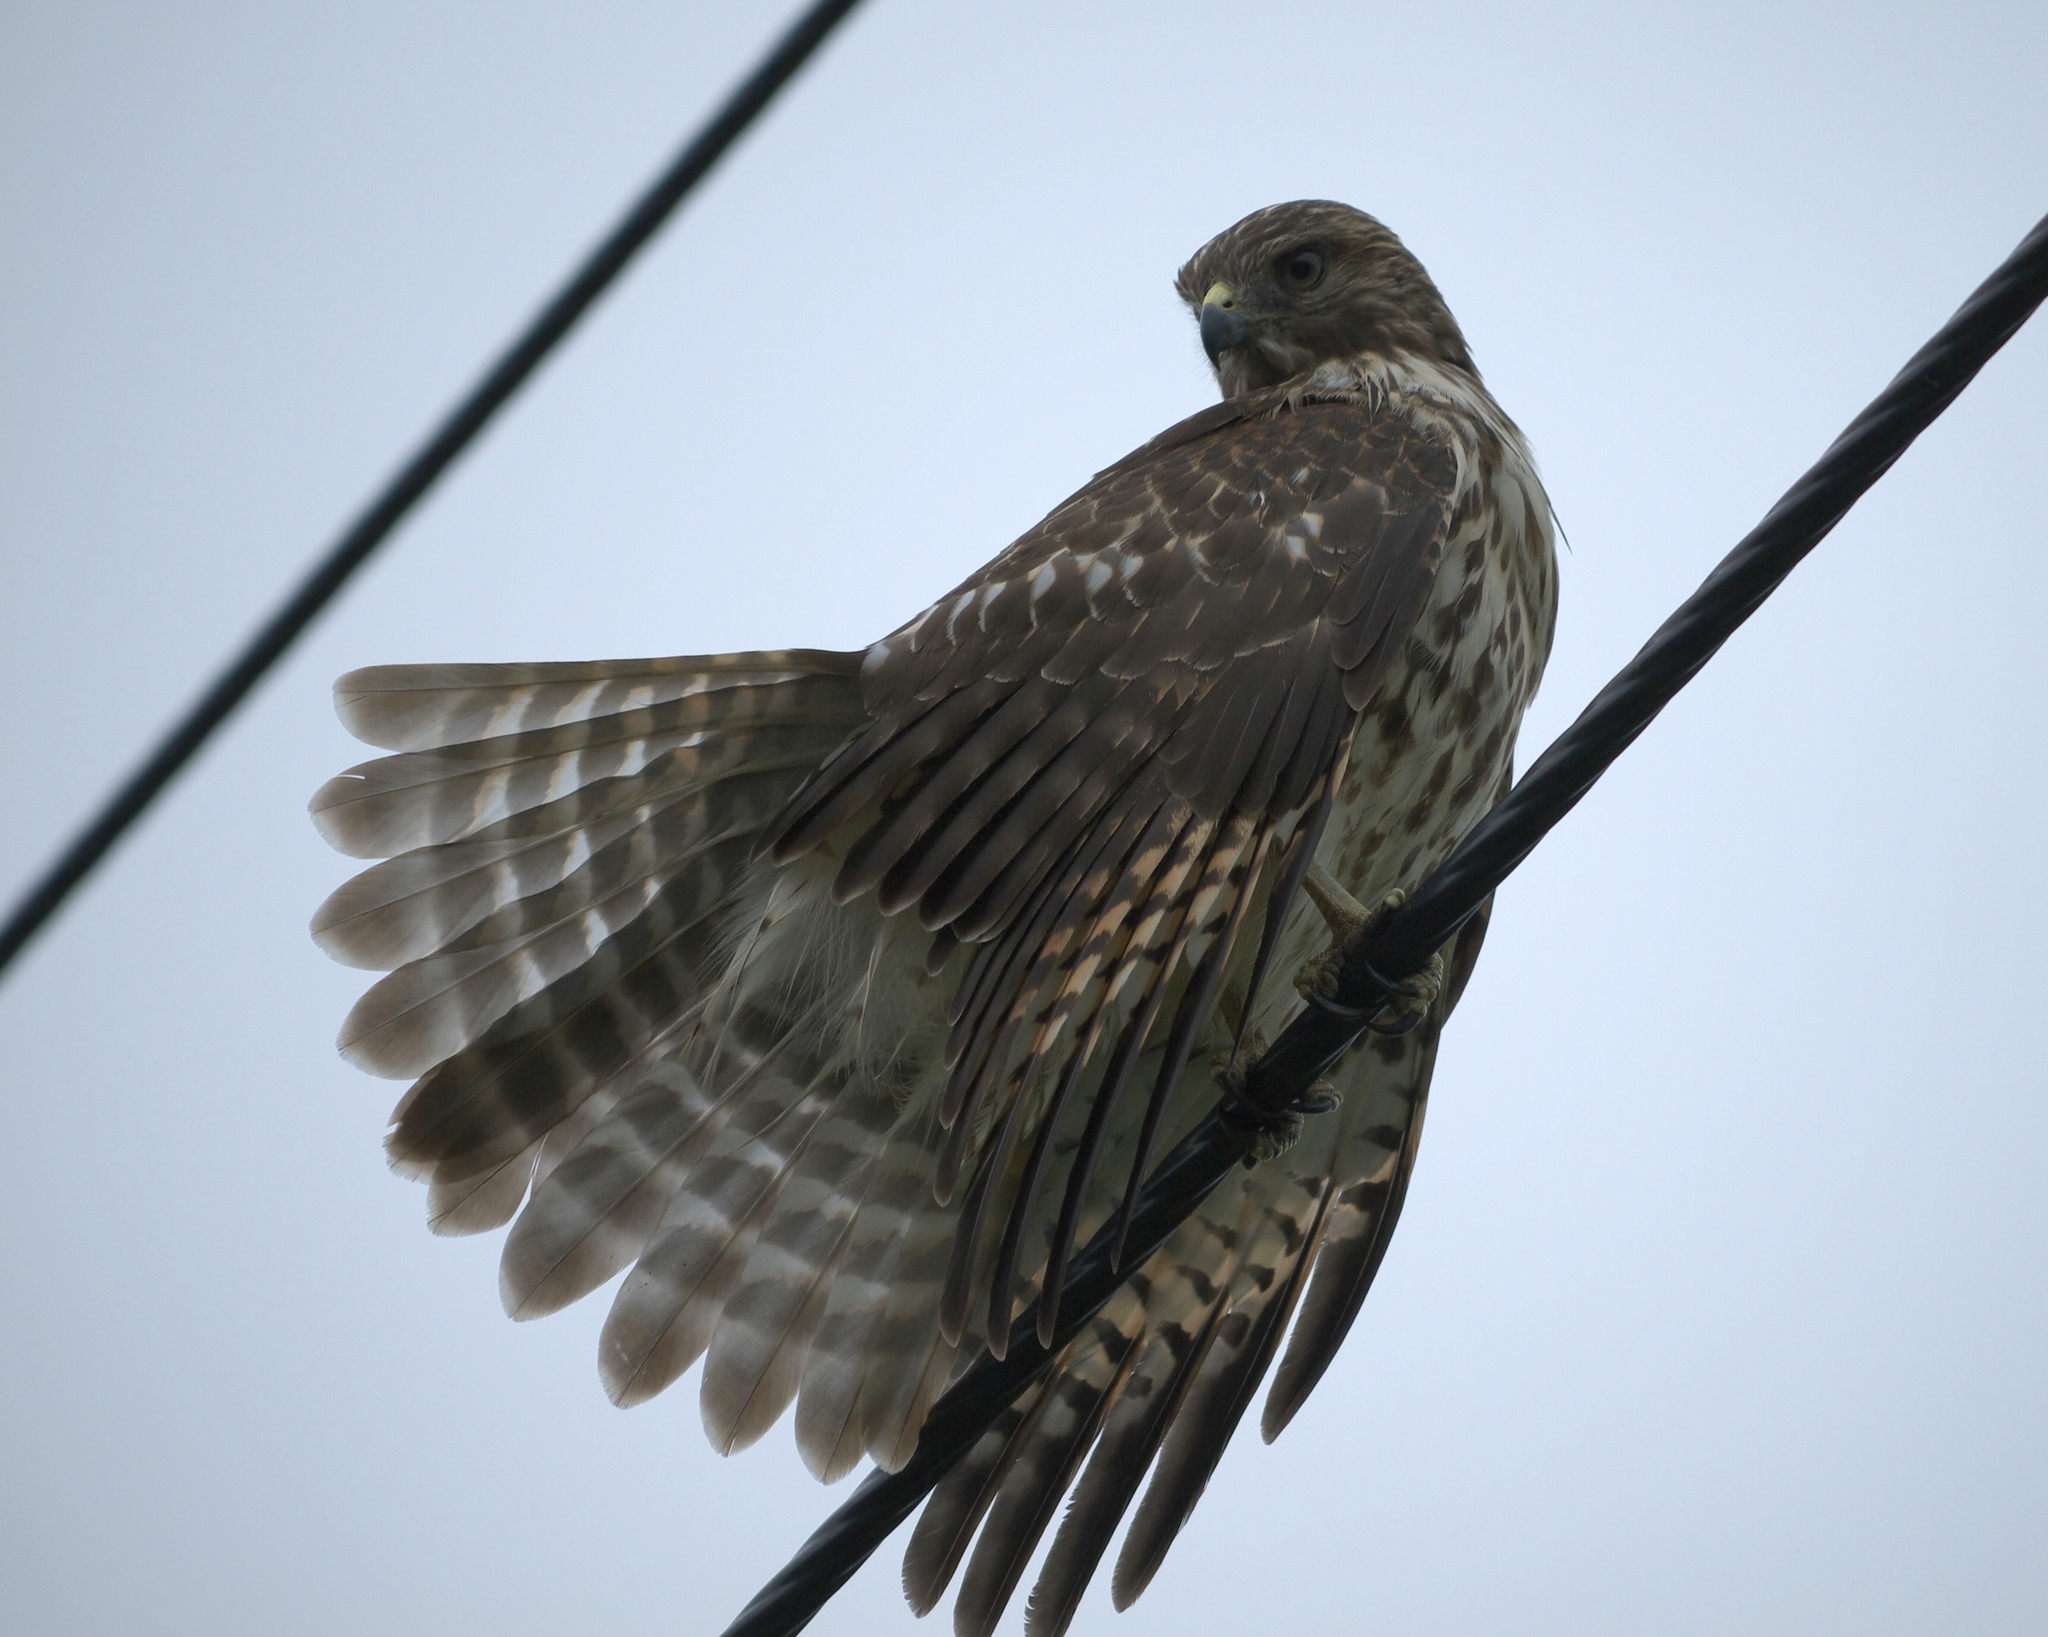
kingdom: Animalia
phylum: Chordata
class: Aves
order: Accipitriformes
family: Accipitridae
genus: Buteo
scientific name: Buteo lineatus
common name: Red-shouldered hawk
